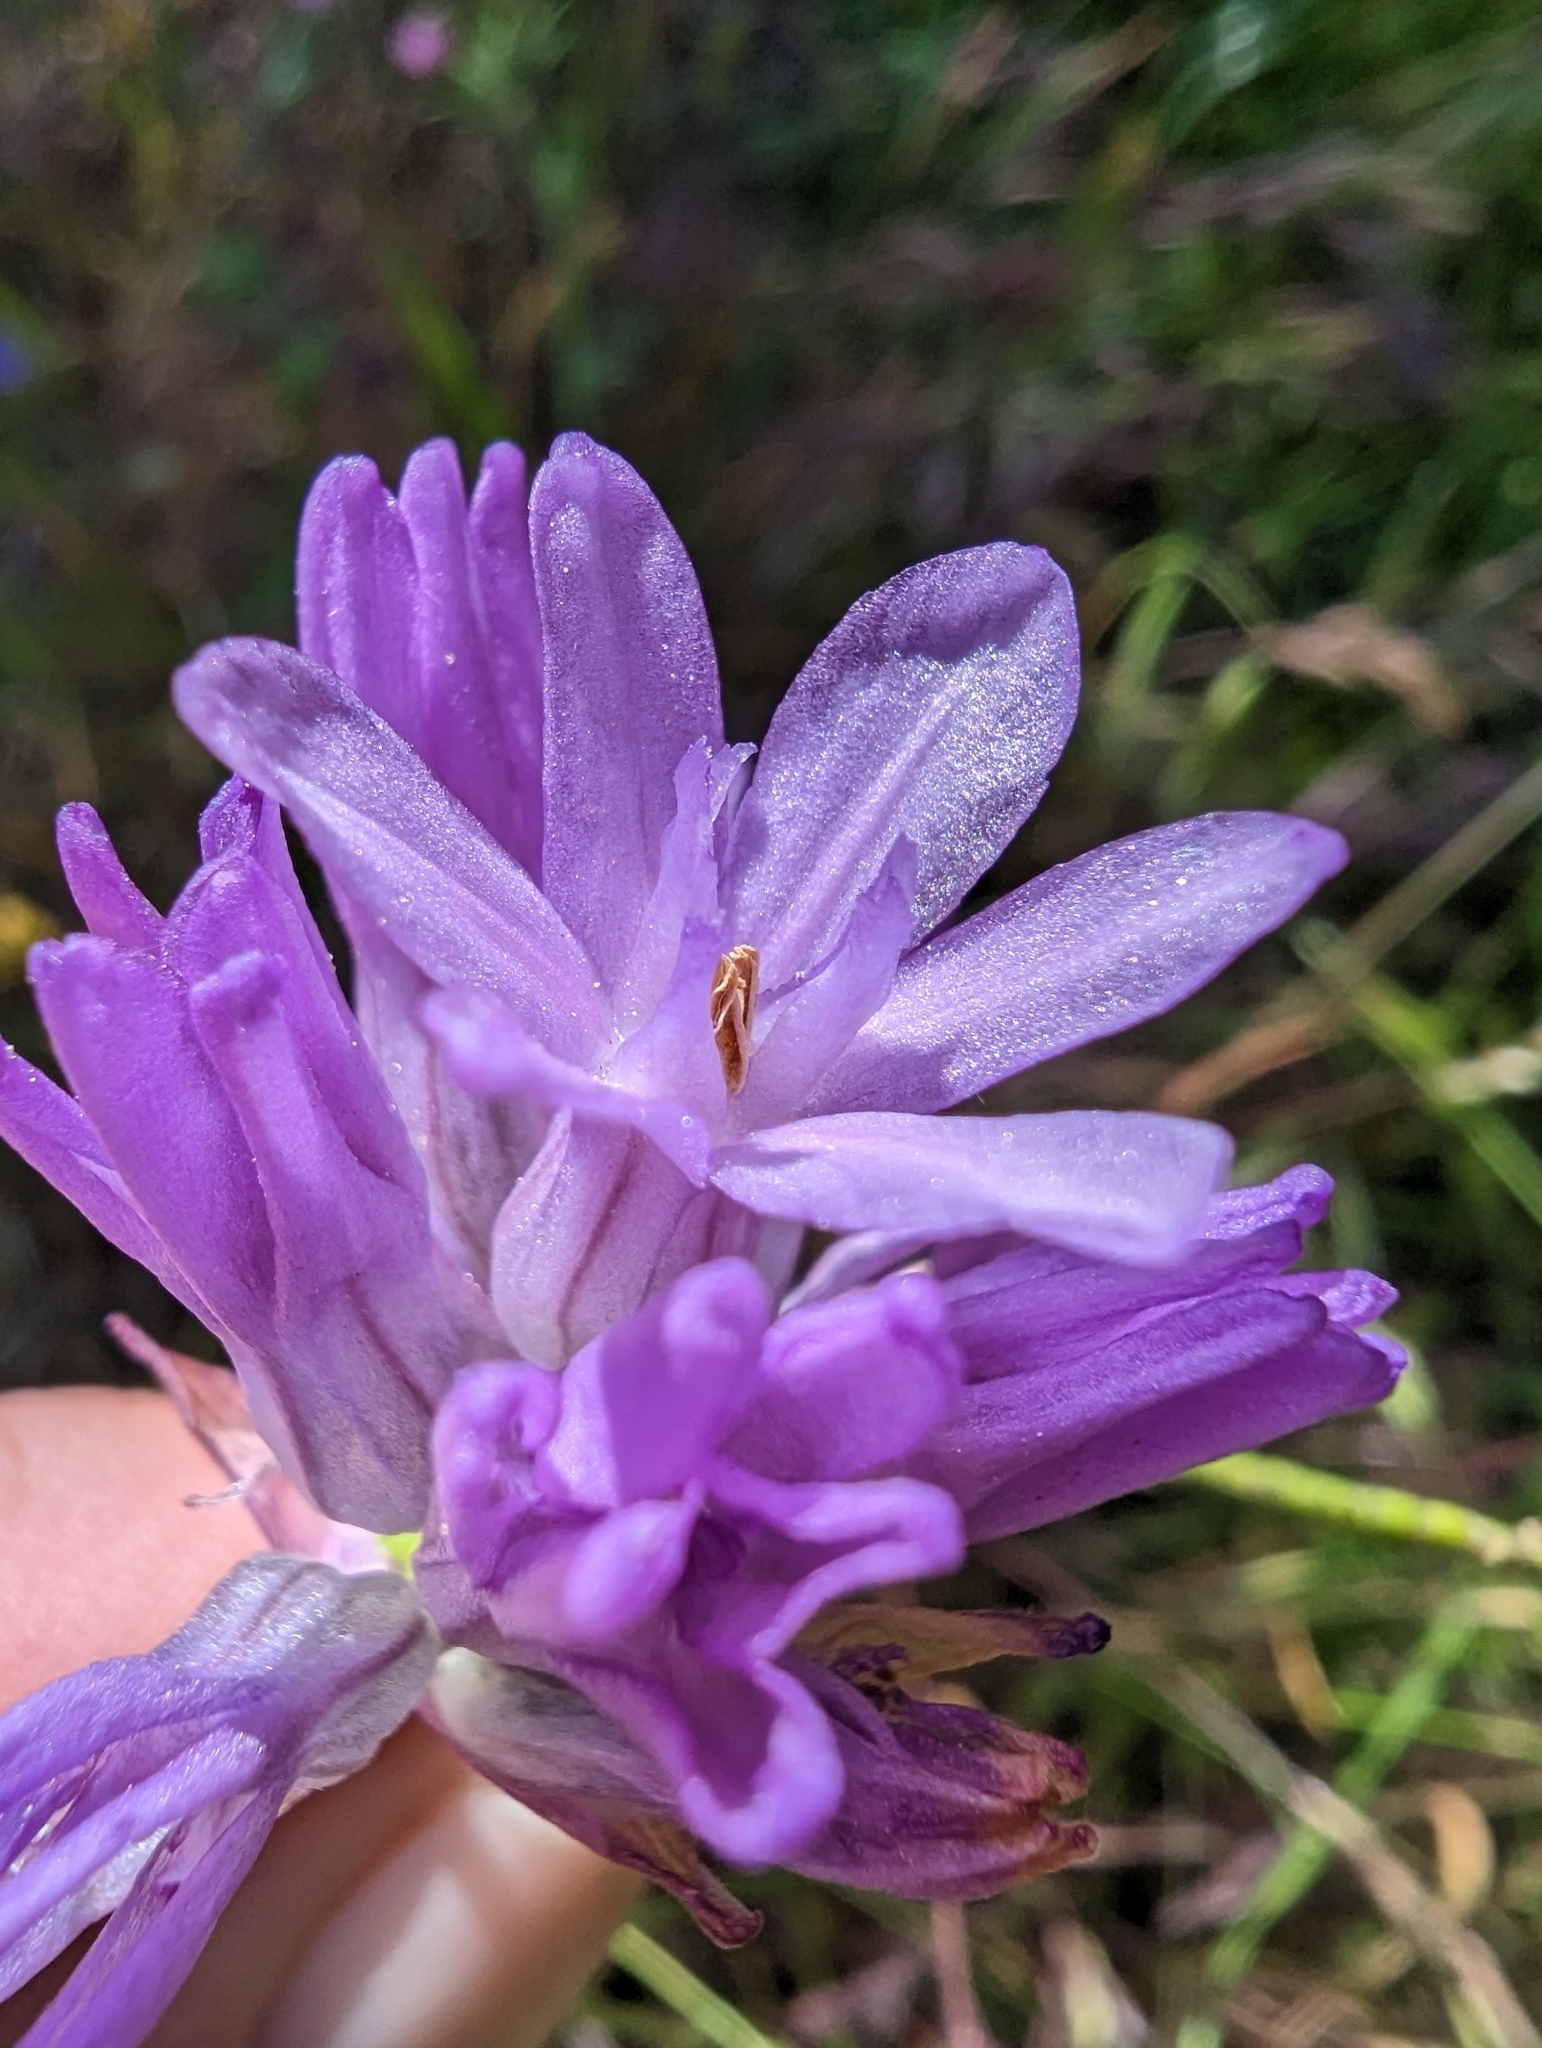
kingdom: Plantae
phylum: Tracheophyta
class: Liliopsida
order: Asparagales
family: Asparagaceae
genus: Dichelostemma
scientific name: Dichelostemma congestum
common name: Fork-tooth ookow
